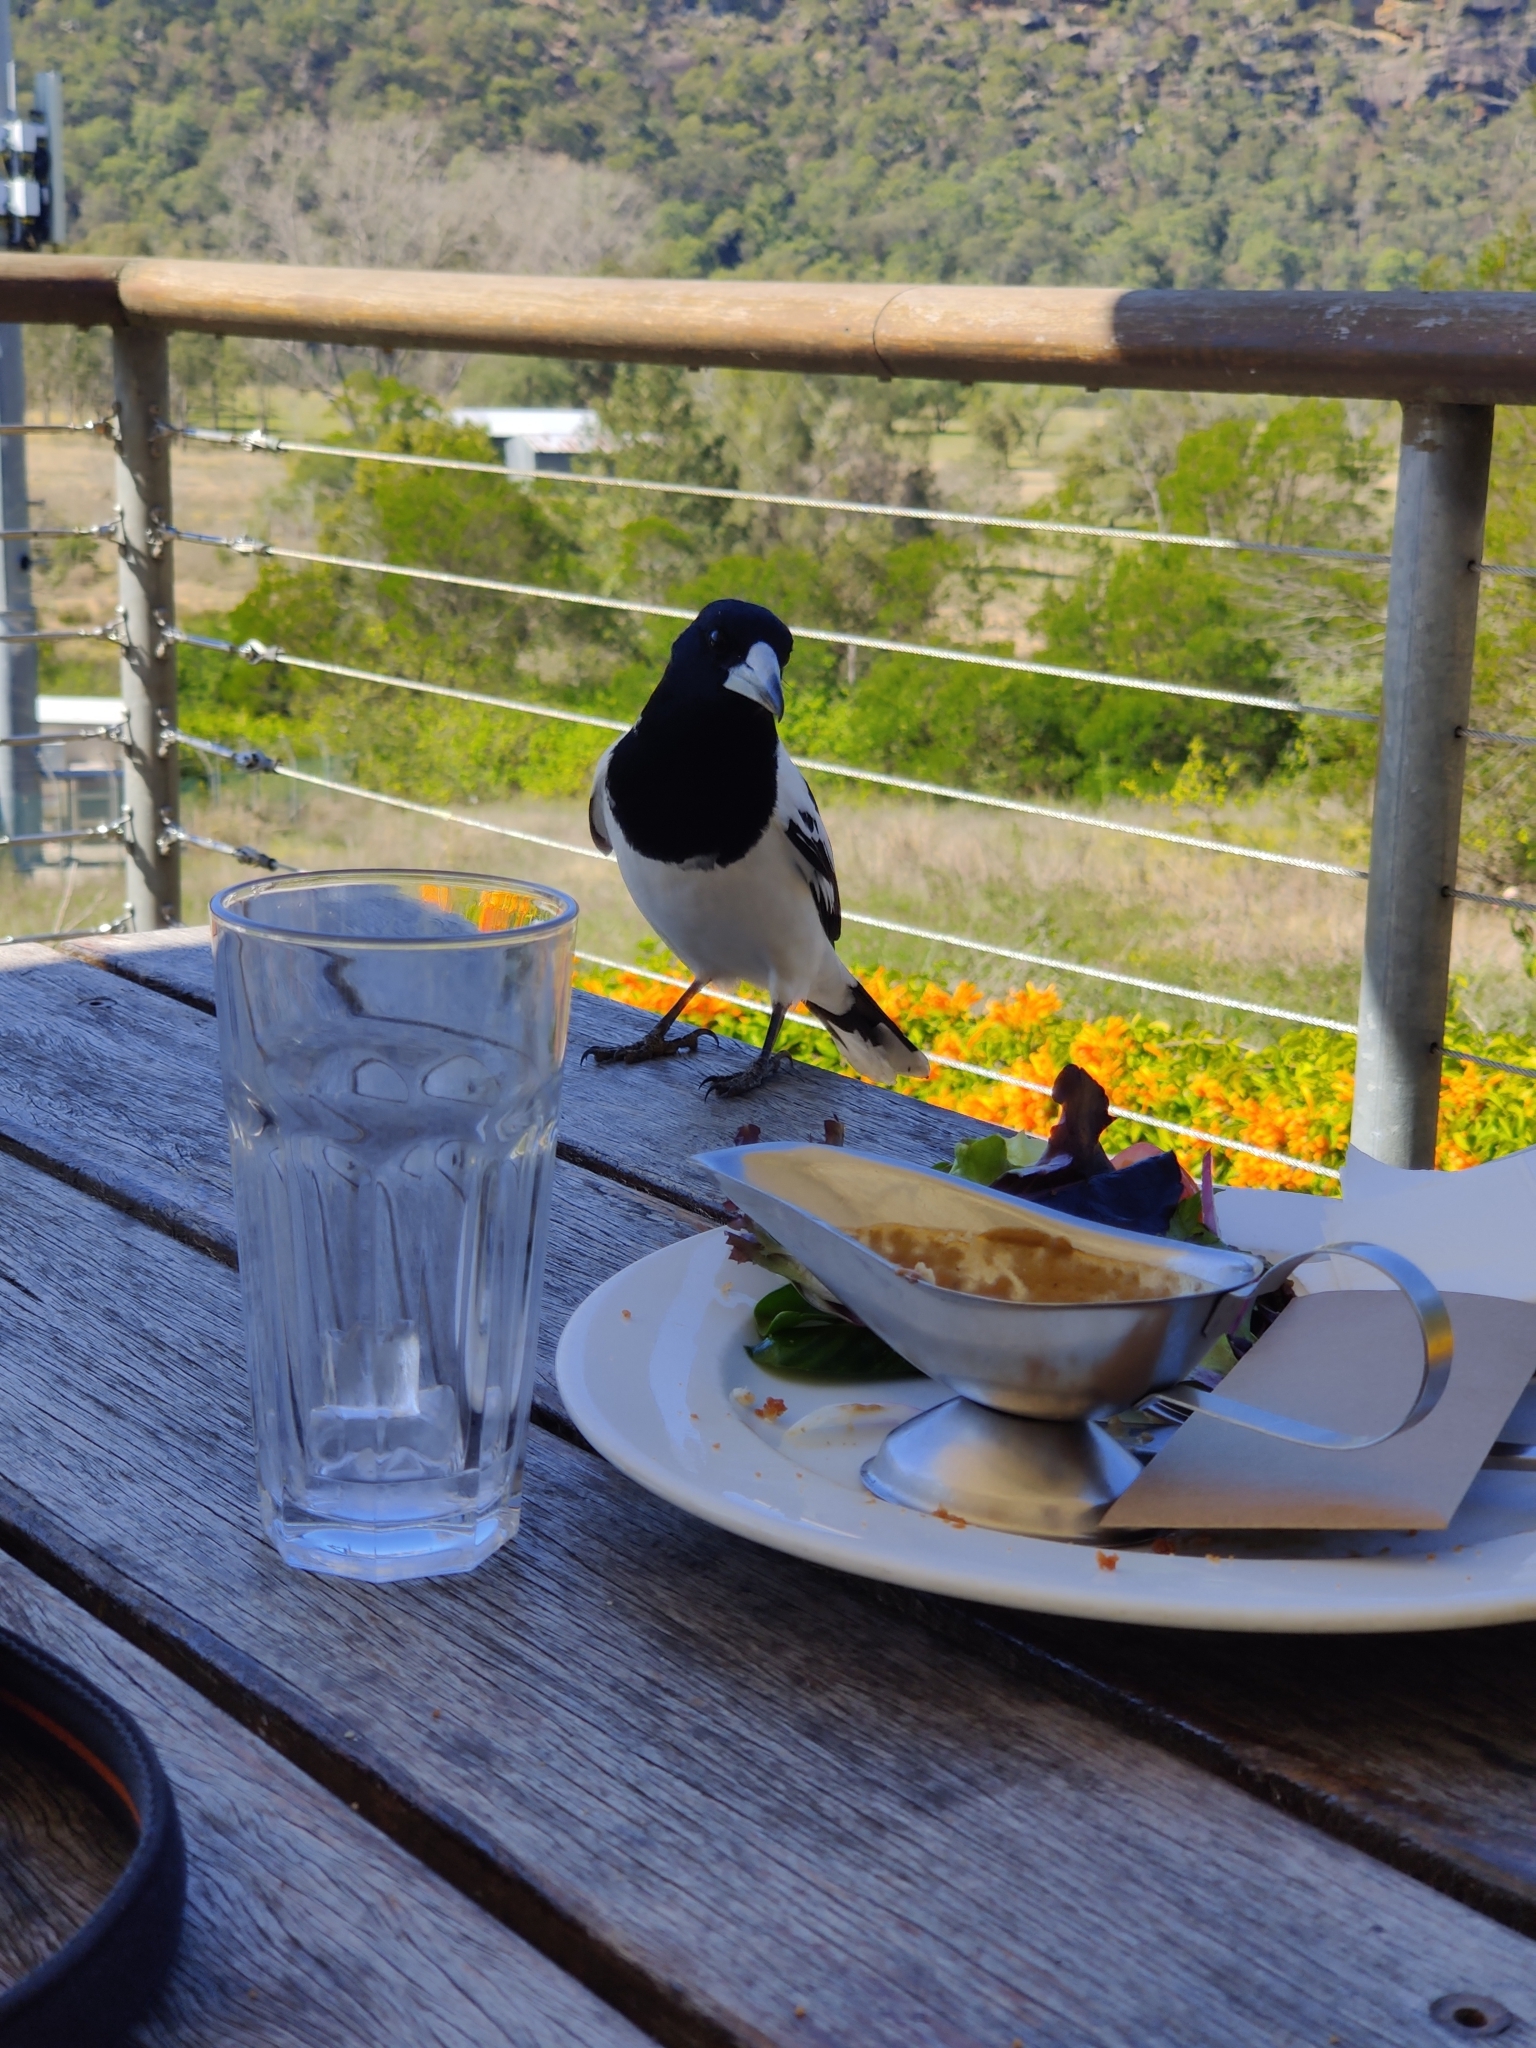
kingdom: Animalia
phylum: Chordata
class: Aves
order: Passeriformes
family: Cracticidae
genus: Cracticus
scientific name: Cracticus nigrogularis
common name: Pied butcherbird
